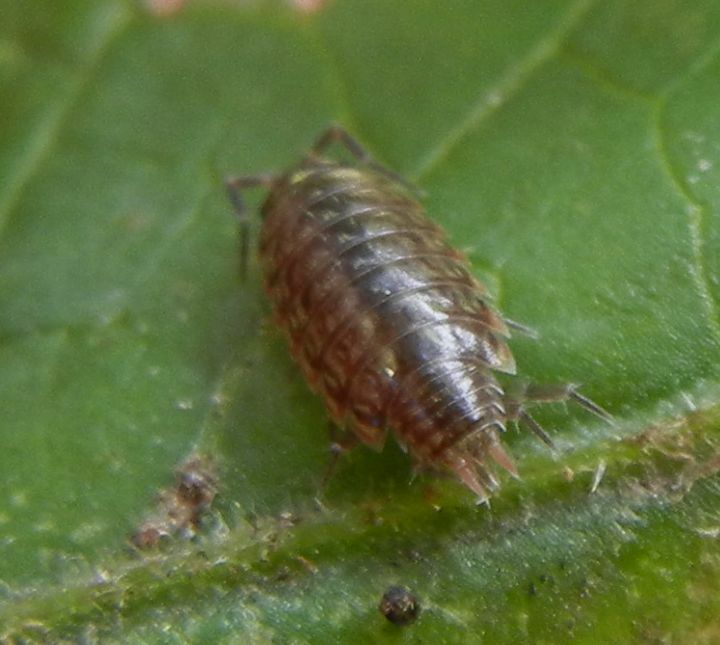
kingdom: Animalia
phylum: Arthropoda
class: Malacostraca
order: Isopoda
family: Philosciidae
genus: Philoscia
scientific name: Philoscia muscorum
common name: Common striped woodlouse
